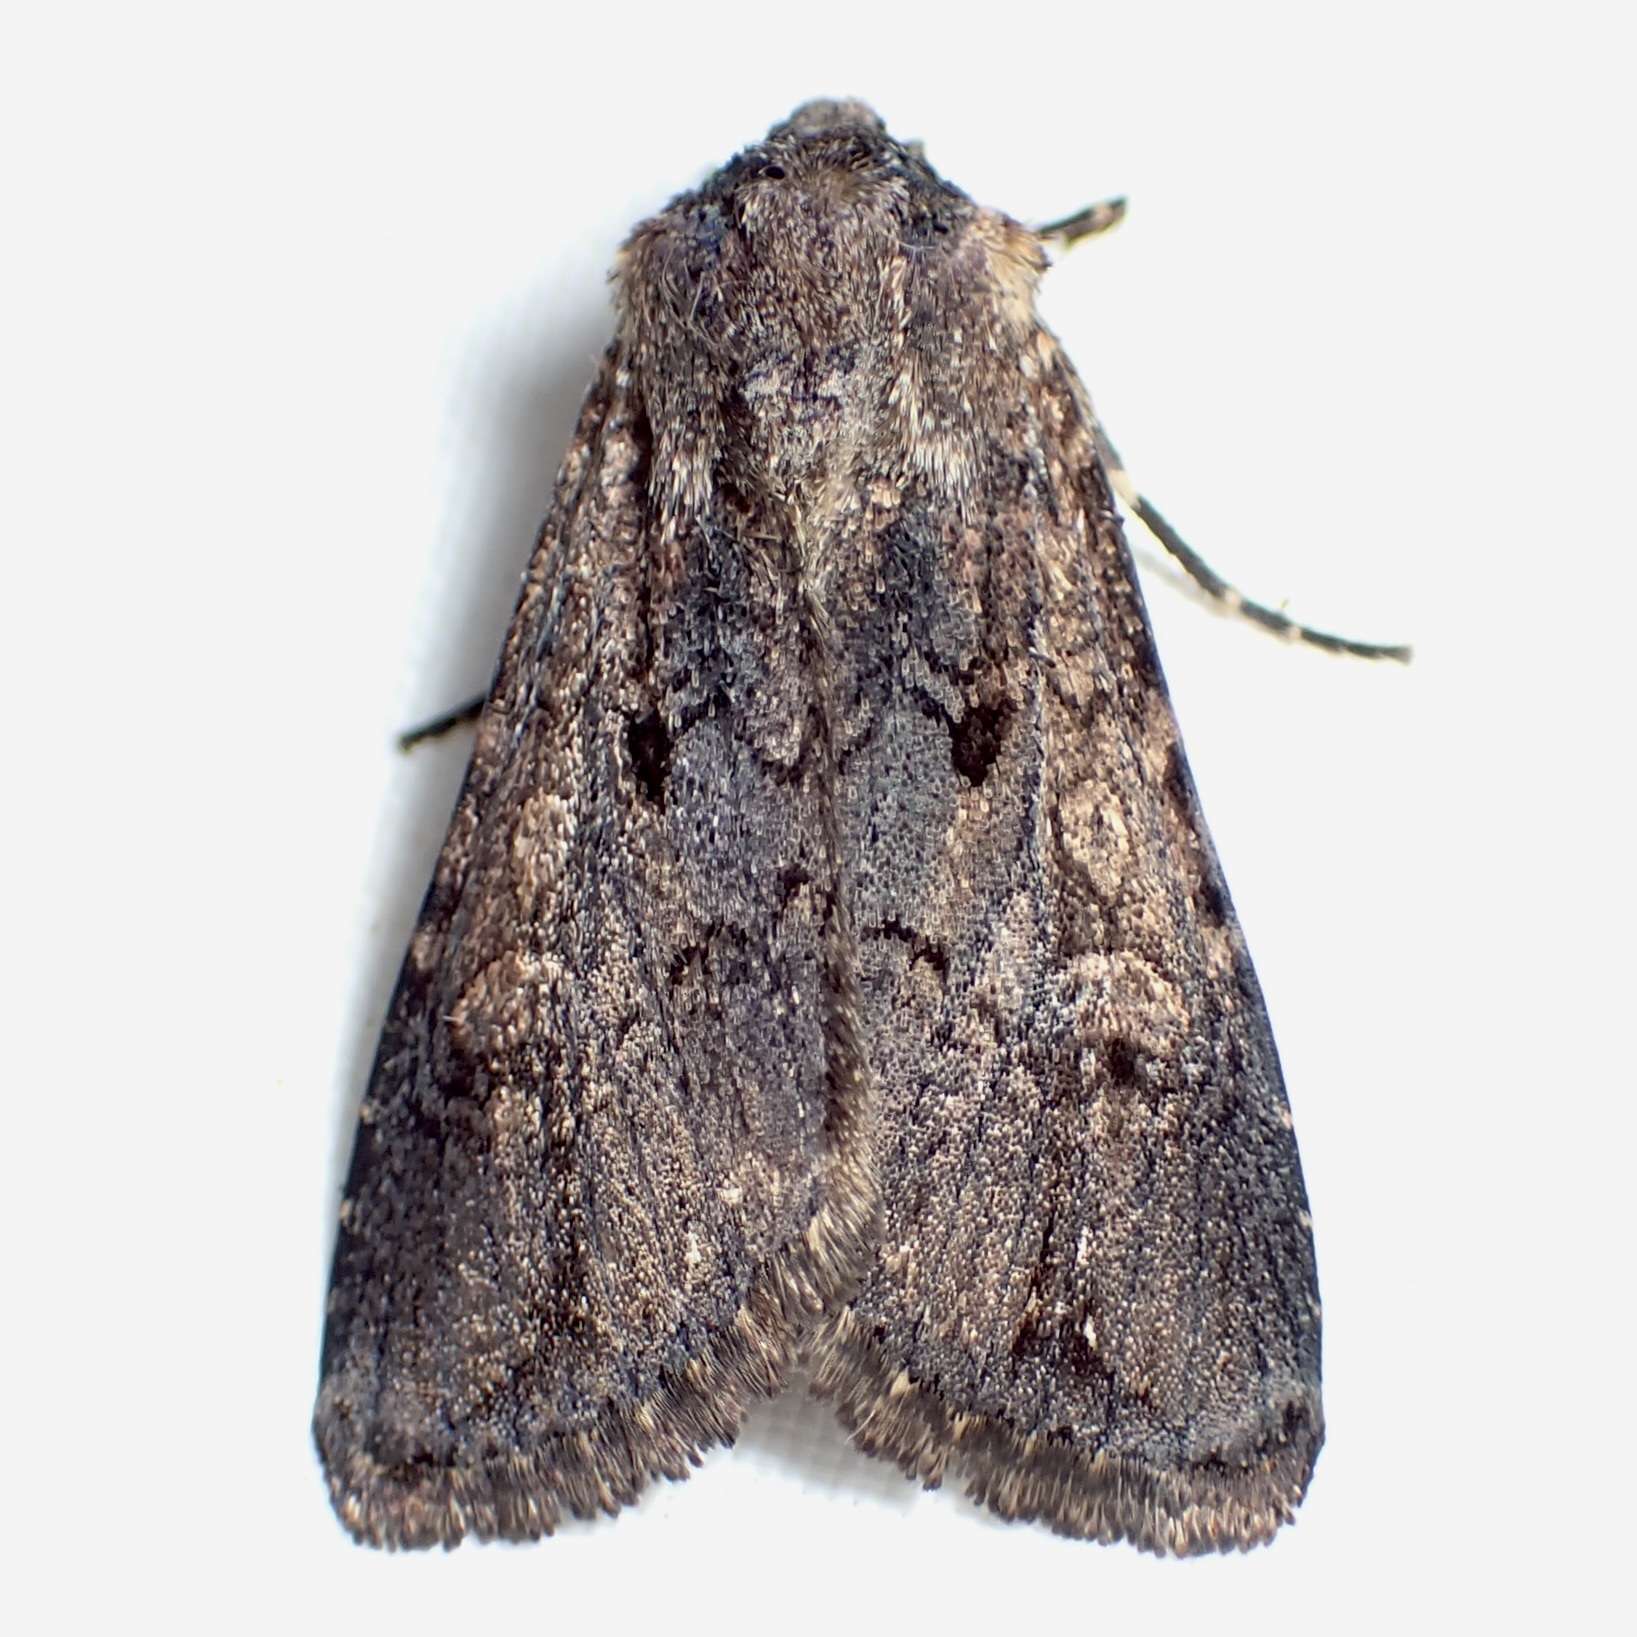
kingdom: Animalia
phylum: Arthropoda
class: Insecta
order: Lepidoptera
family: Noctuidae
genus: Dichagyris
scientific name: Dichagyris proclivis
